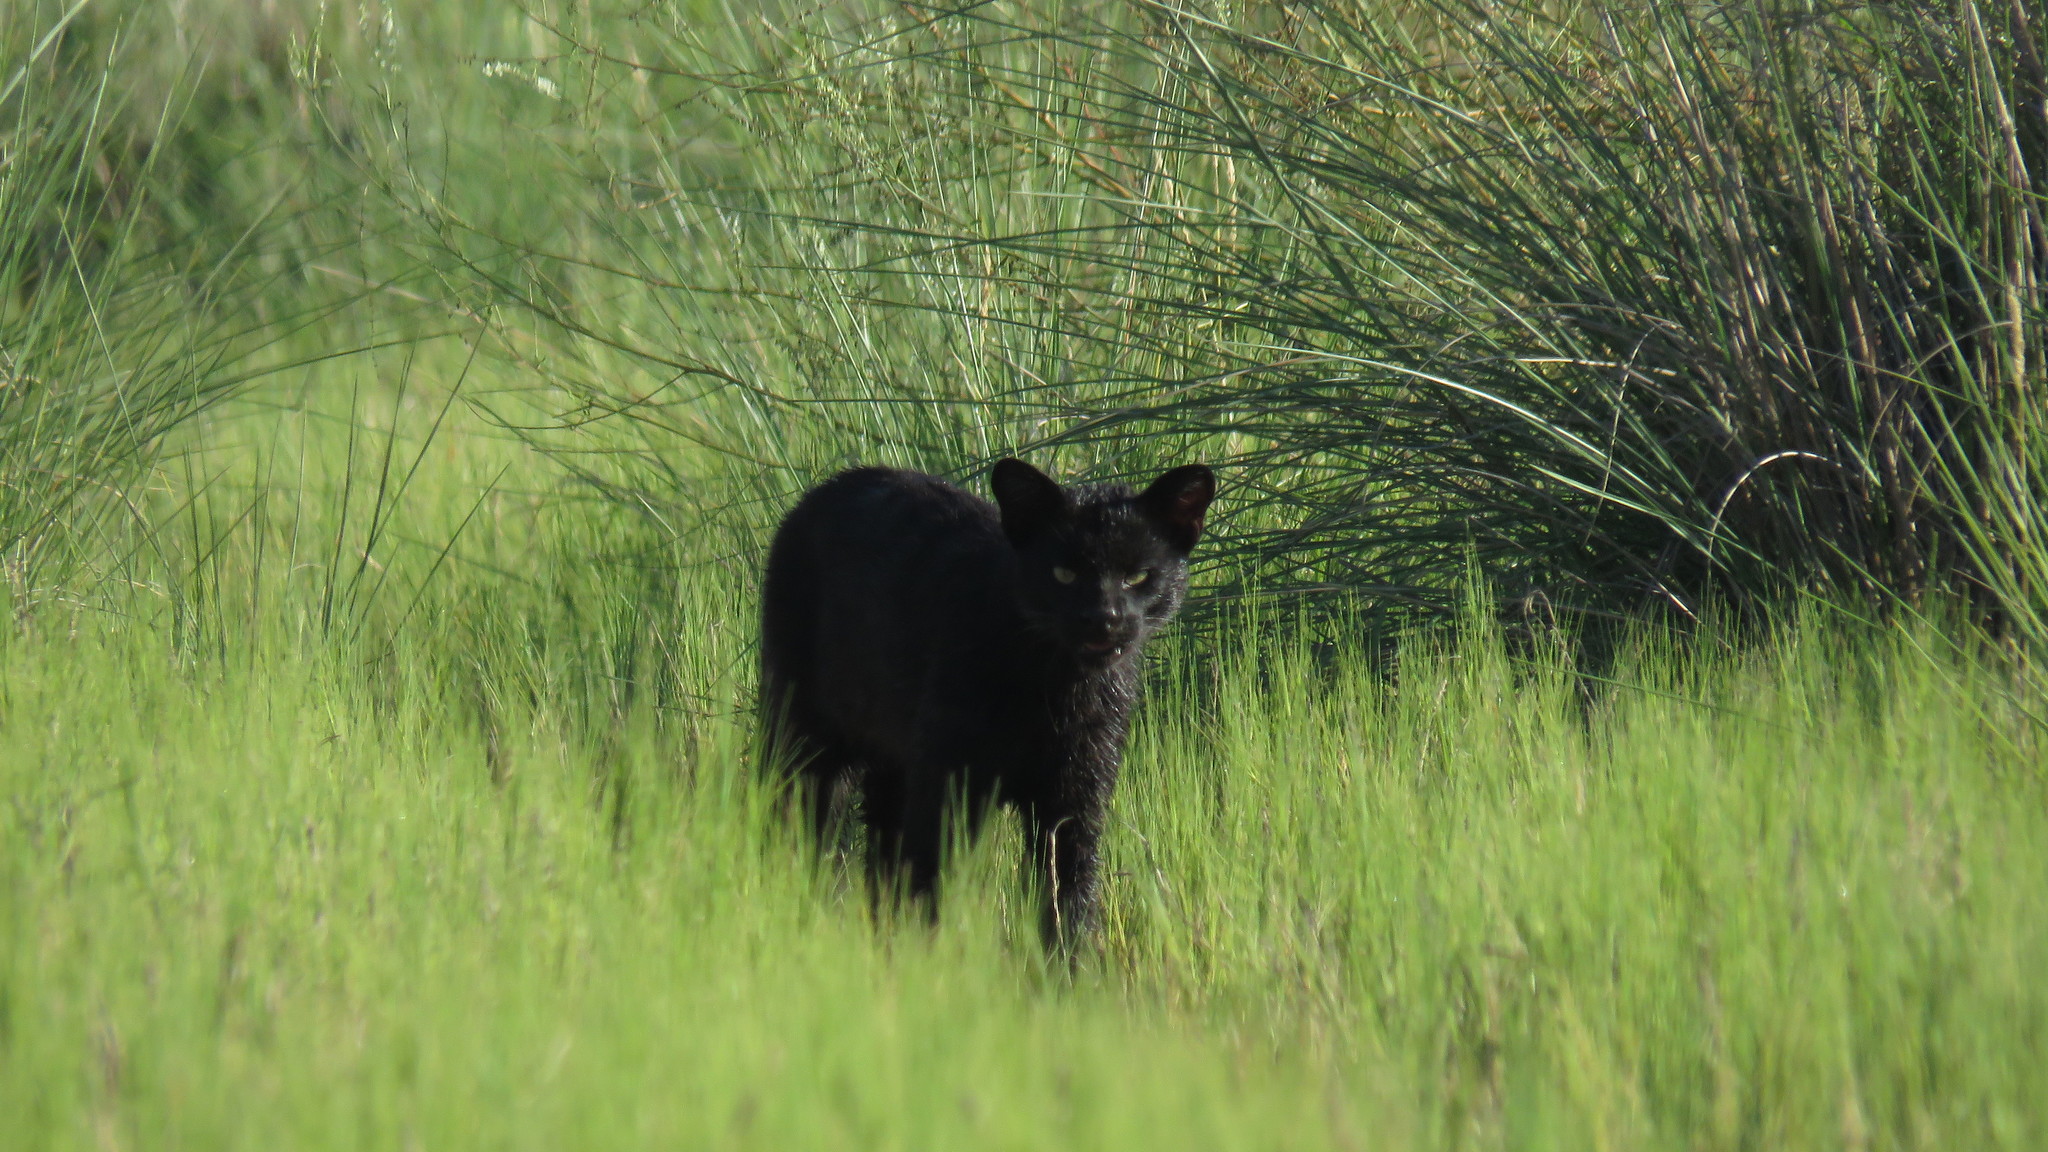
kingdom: Animalia
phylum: Chordata
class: Mammalia
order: Carnivora
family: Felidae
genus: Leopardus
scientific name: Leopardus geoffroyi
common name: Geoffroy's cat
